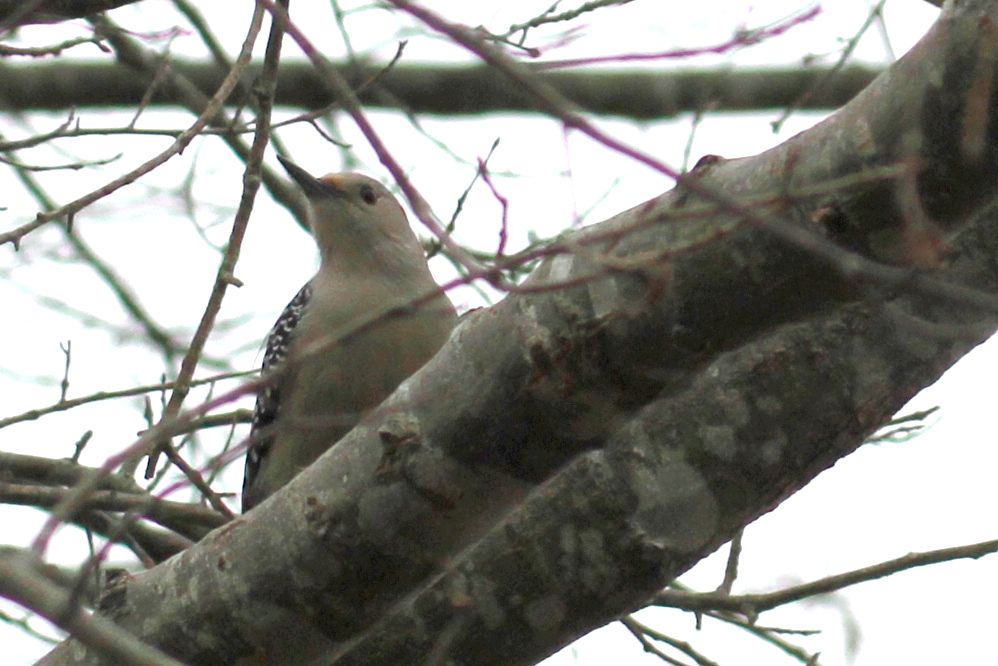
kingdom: Animalia
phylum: Chordata
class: Aves
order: Piciformes
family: Picidae
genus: Melanerpes
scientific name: Melanerpes carolinus
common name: Red-bellied woodpecker
